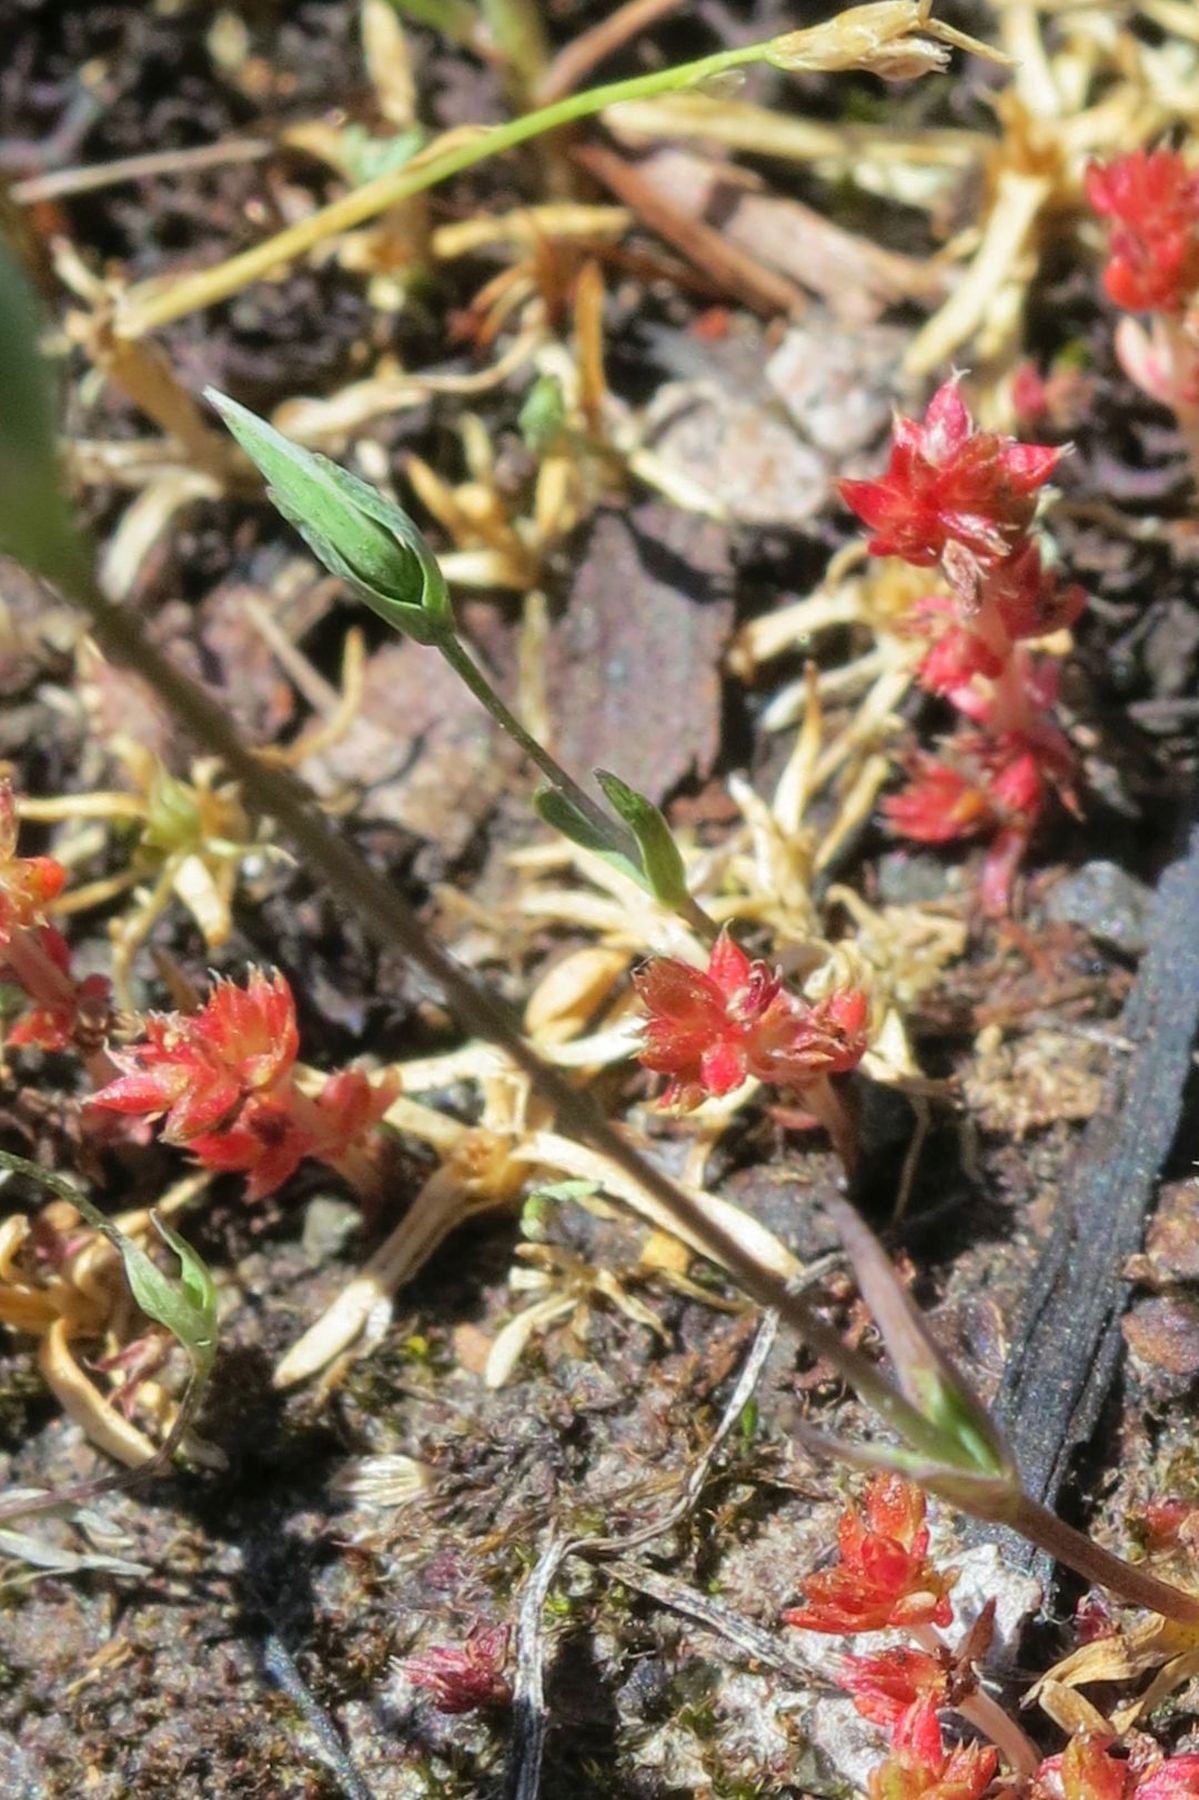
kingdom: Plantae
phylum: Tracheophyta
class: Magnoliopsida
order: Caryophyllales
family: Caryophyllaceae
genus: Moenchia
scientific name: Moenchia erecta
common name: Upright chickweed
